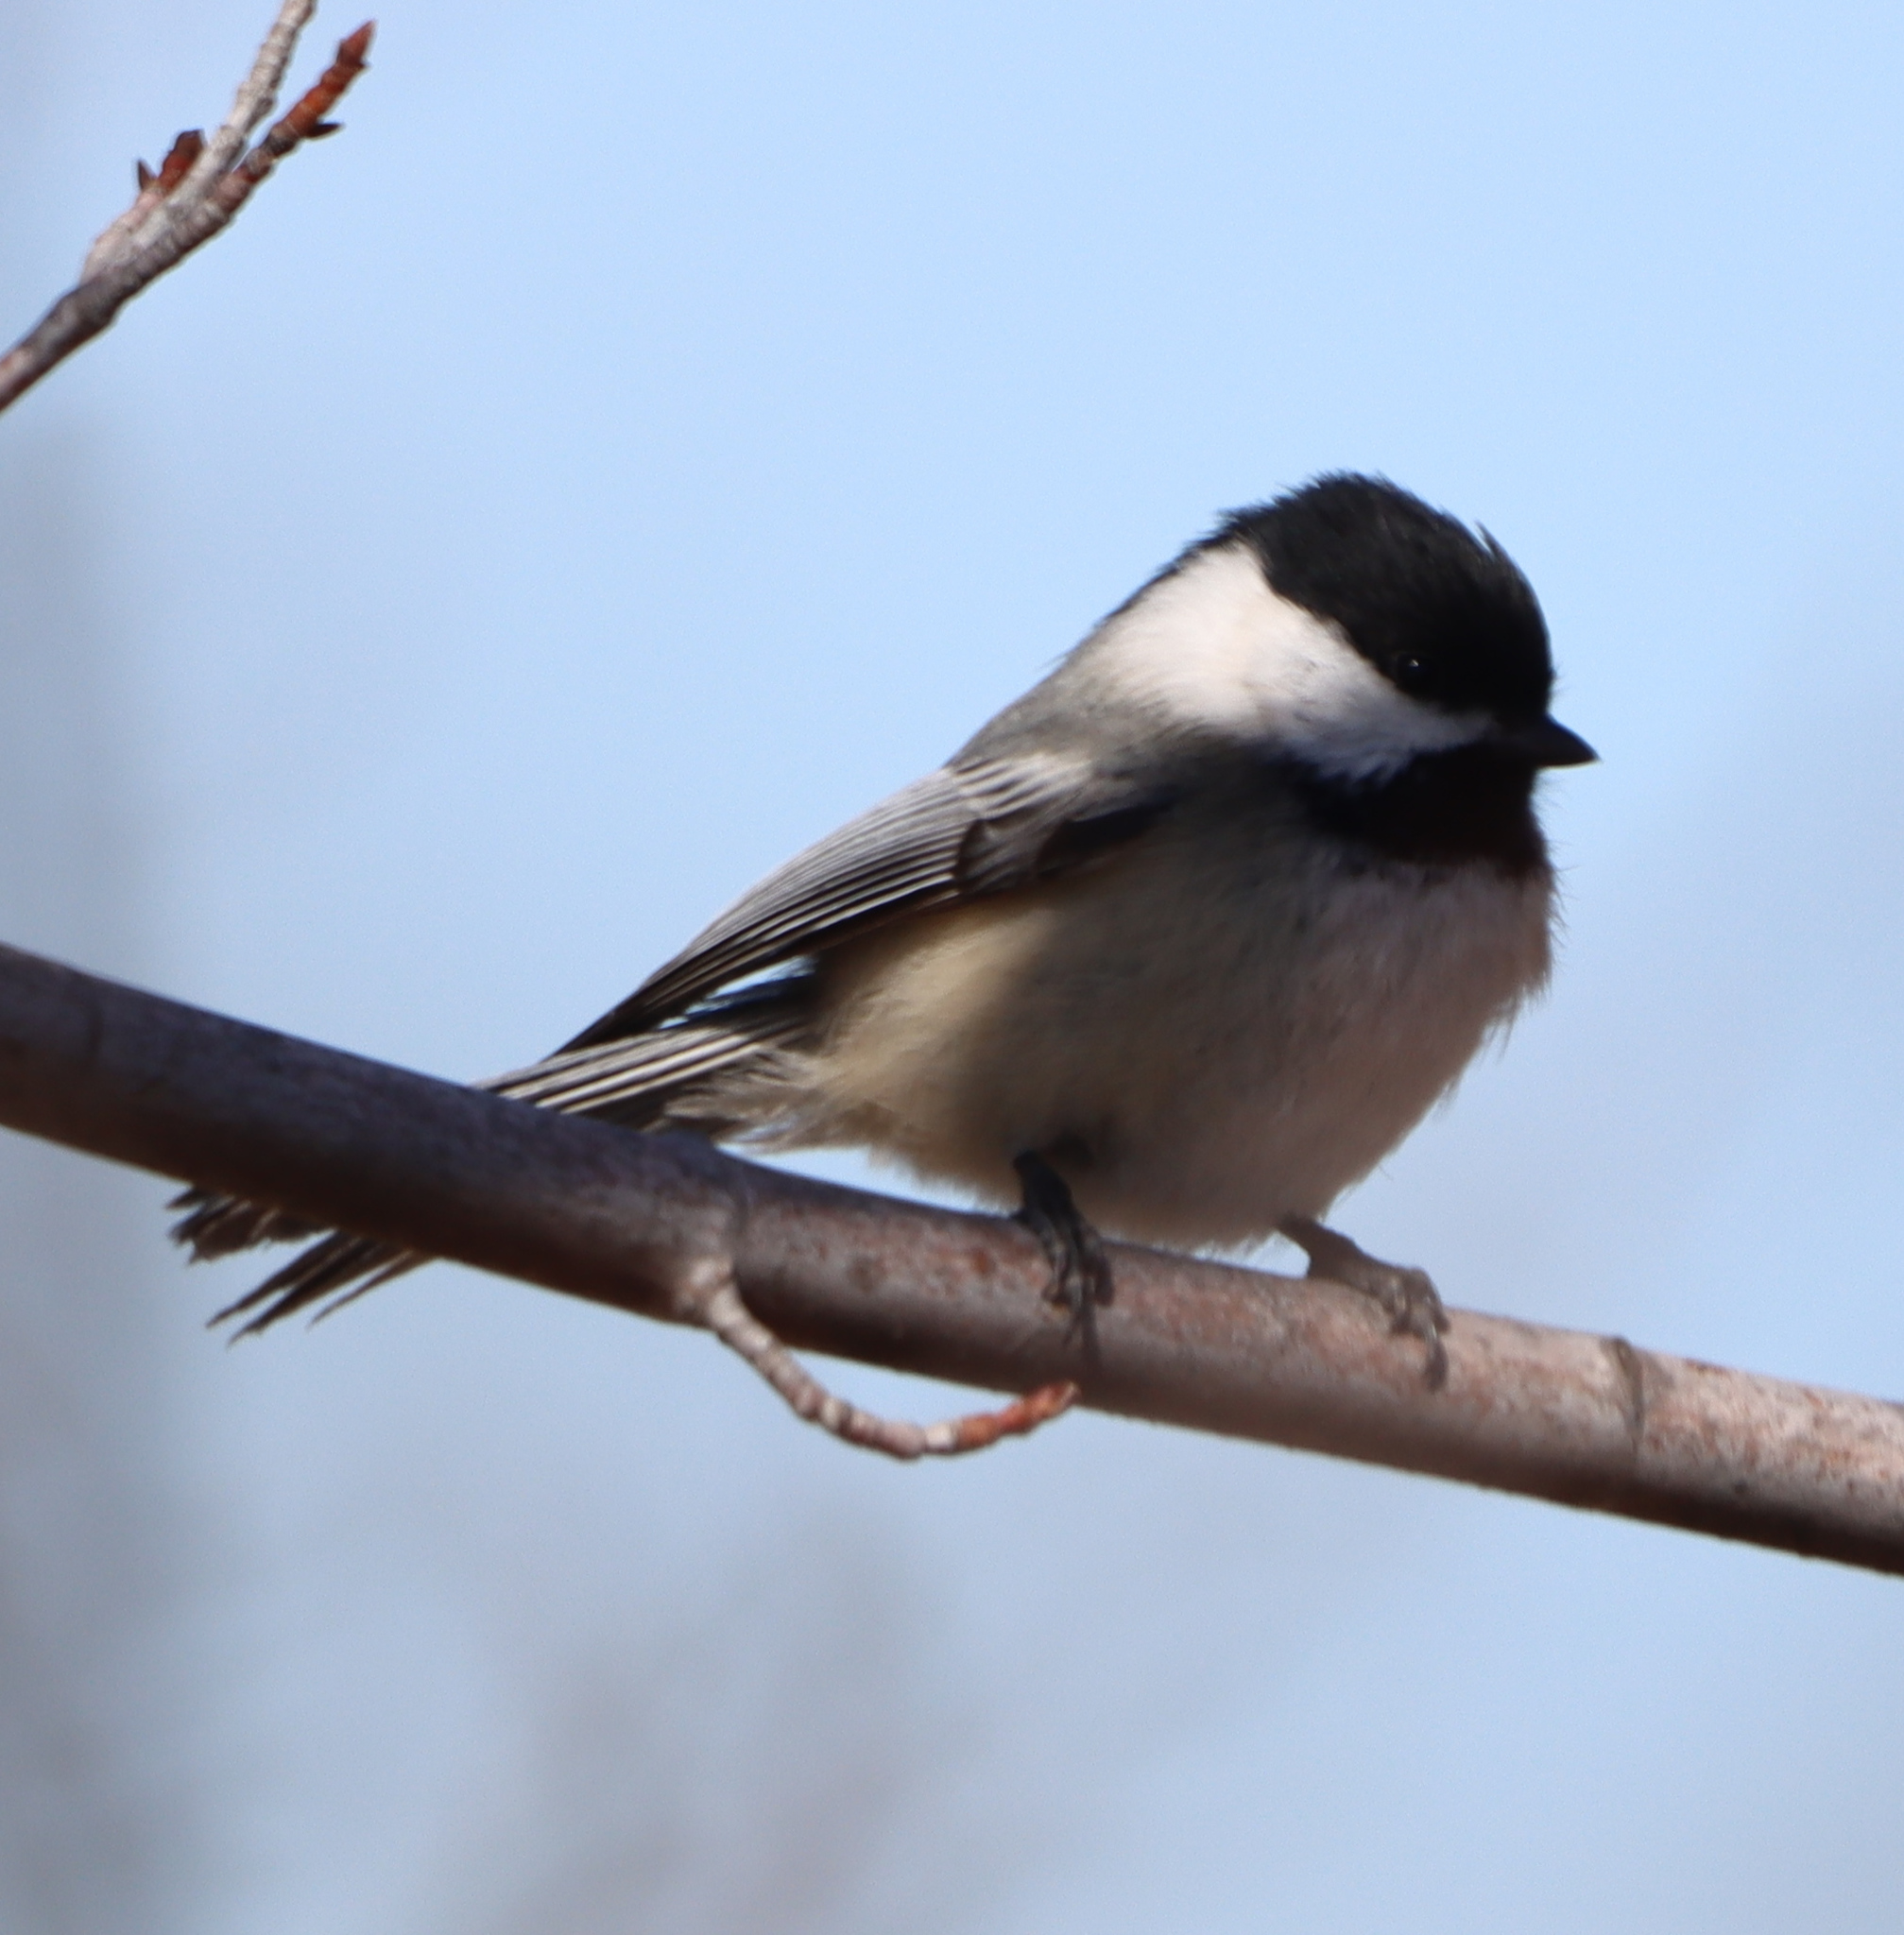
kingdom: Animalia
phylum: Chordata
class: Aves
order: Passeriformes
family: Paridae
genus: Poecile
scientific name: Poecile atricapillus
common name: Black-capped chickadee
